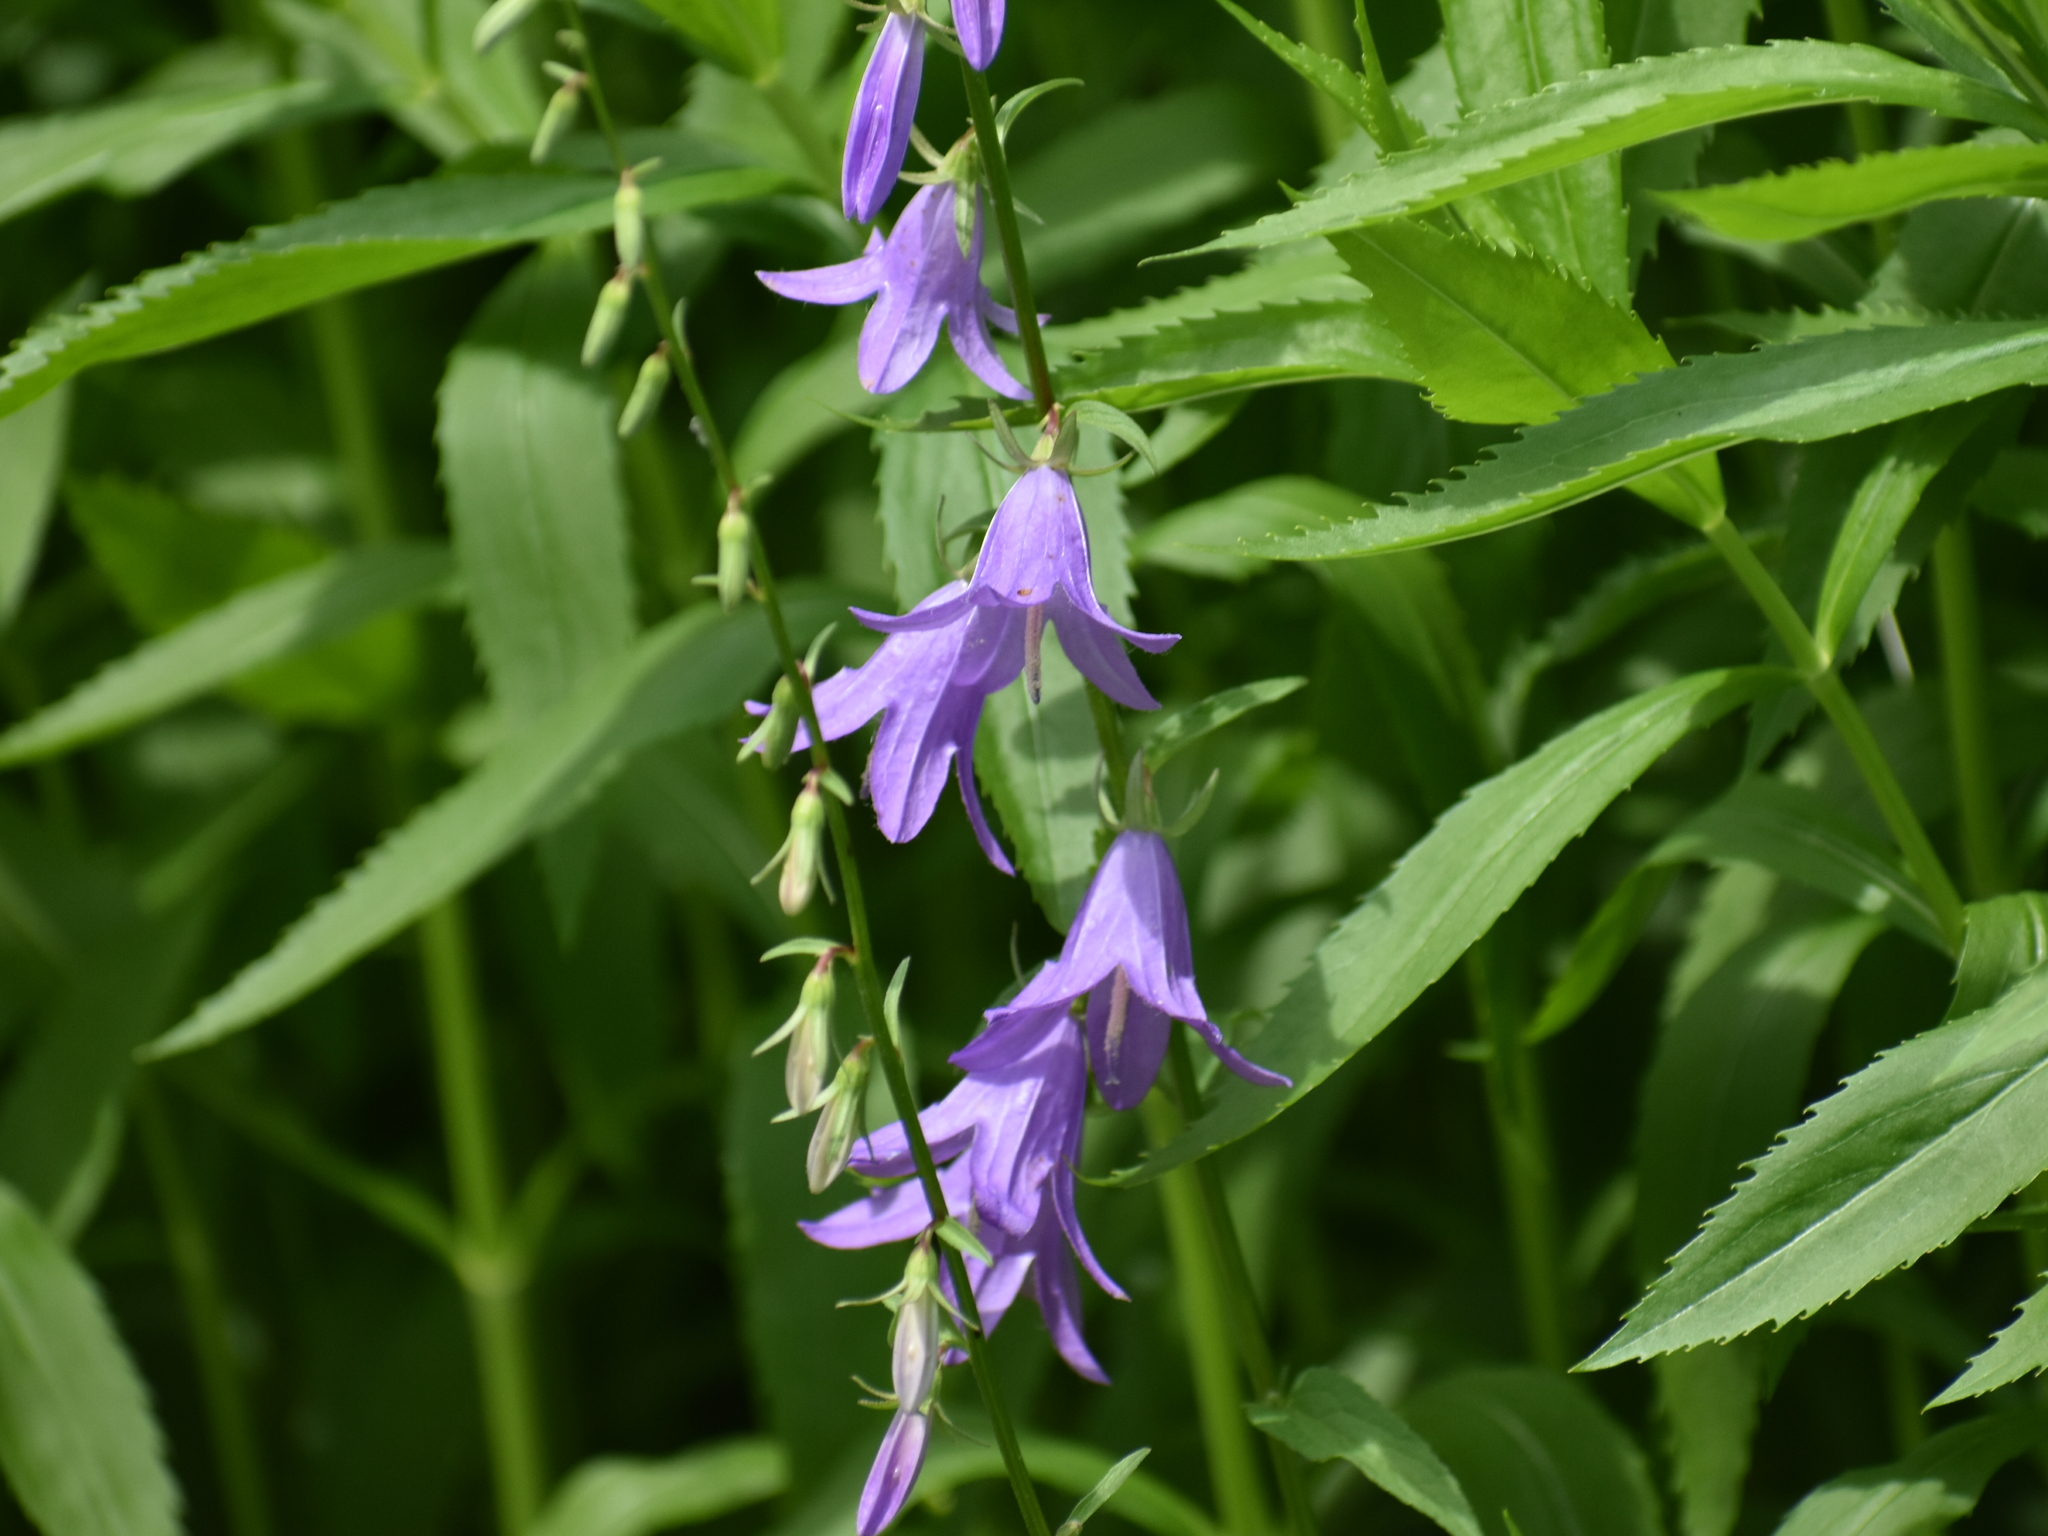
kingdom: Plantae
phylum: Tracheophyta
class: Magnoliopsida
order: Asterales
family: Campanulaceae
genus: Campanula
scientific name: Campanula rapunculoides
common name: Creeping bellflower
